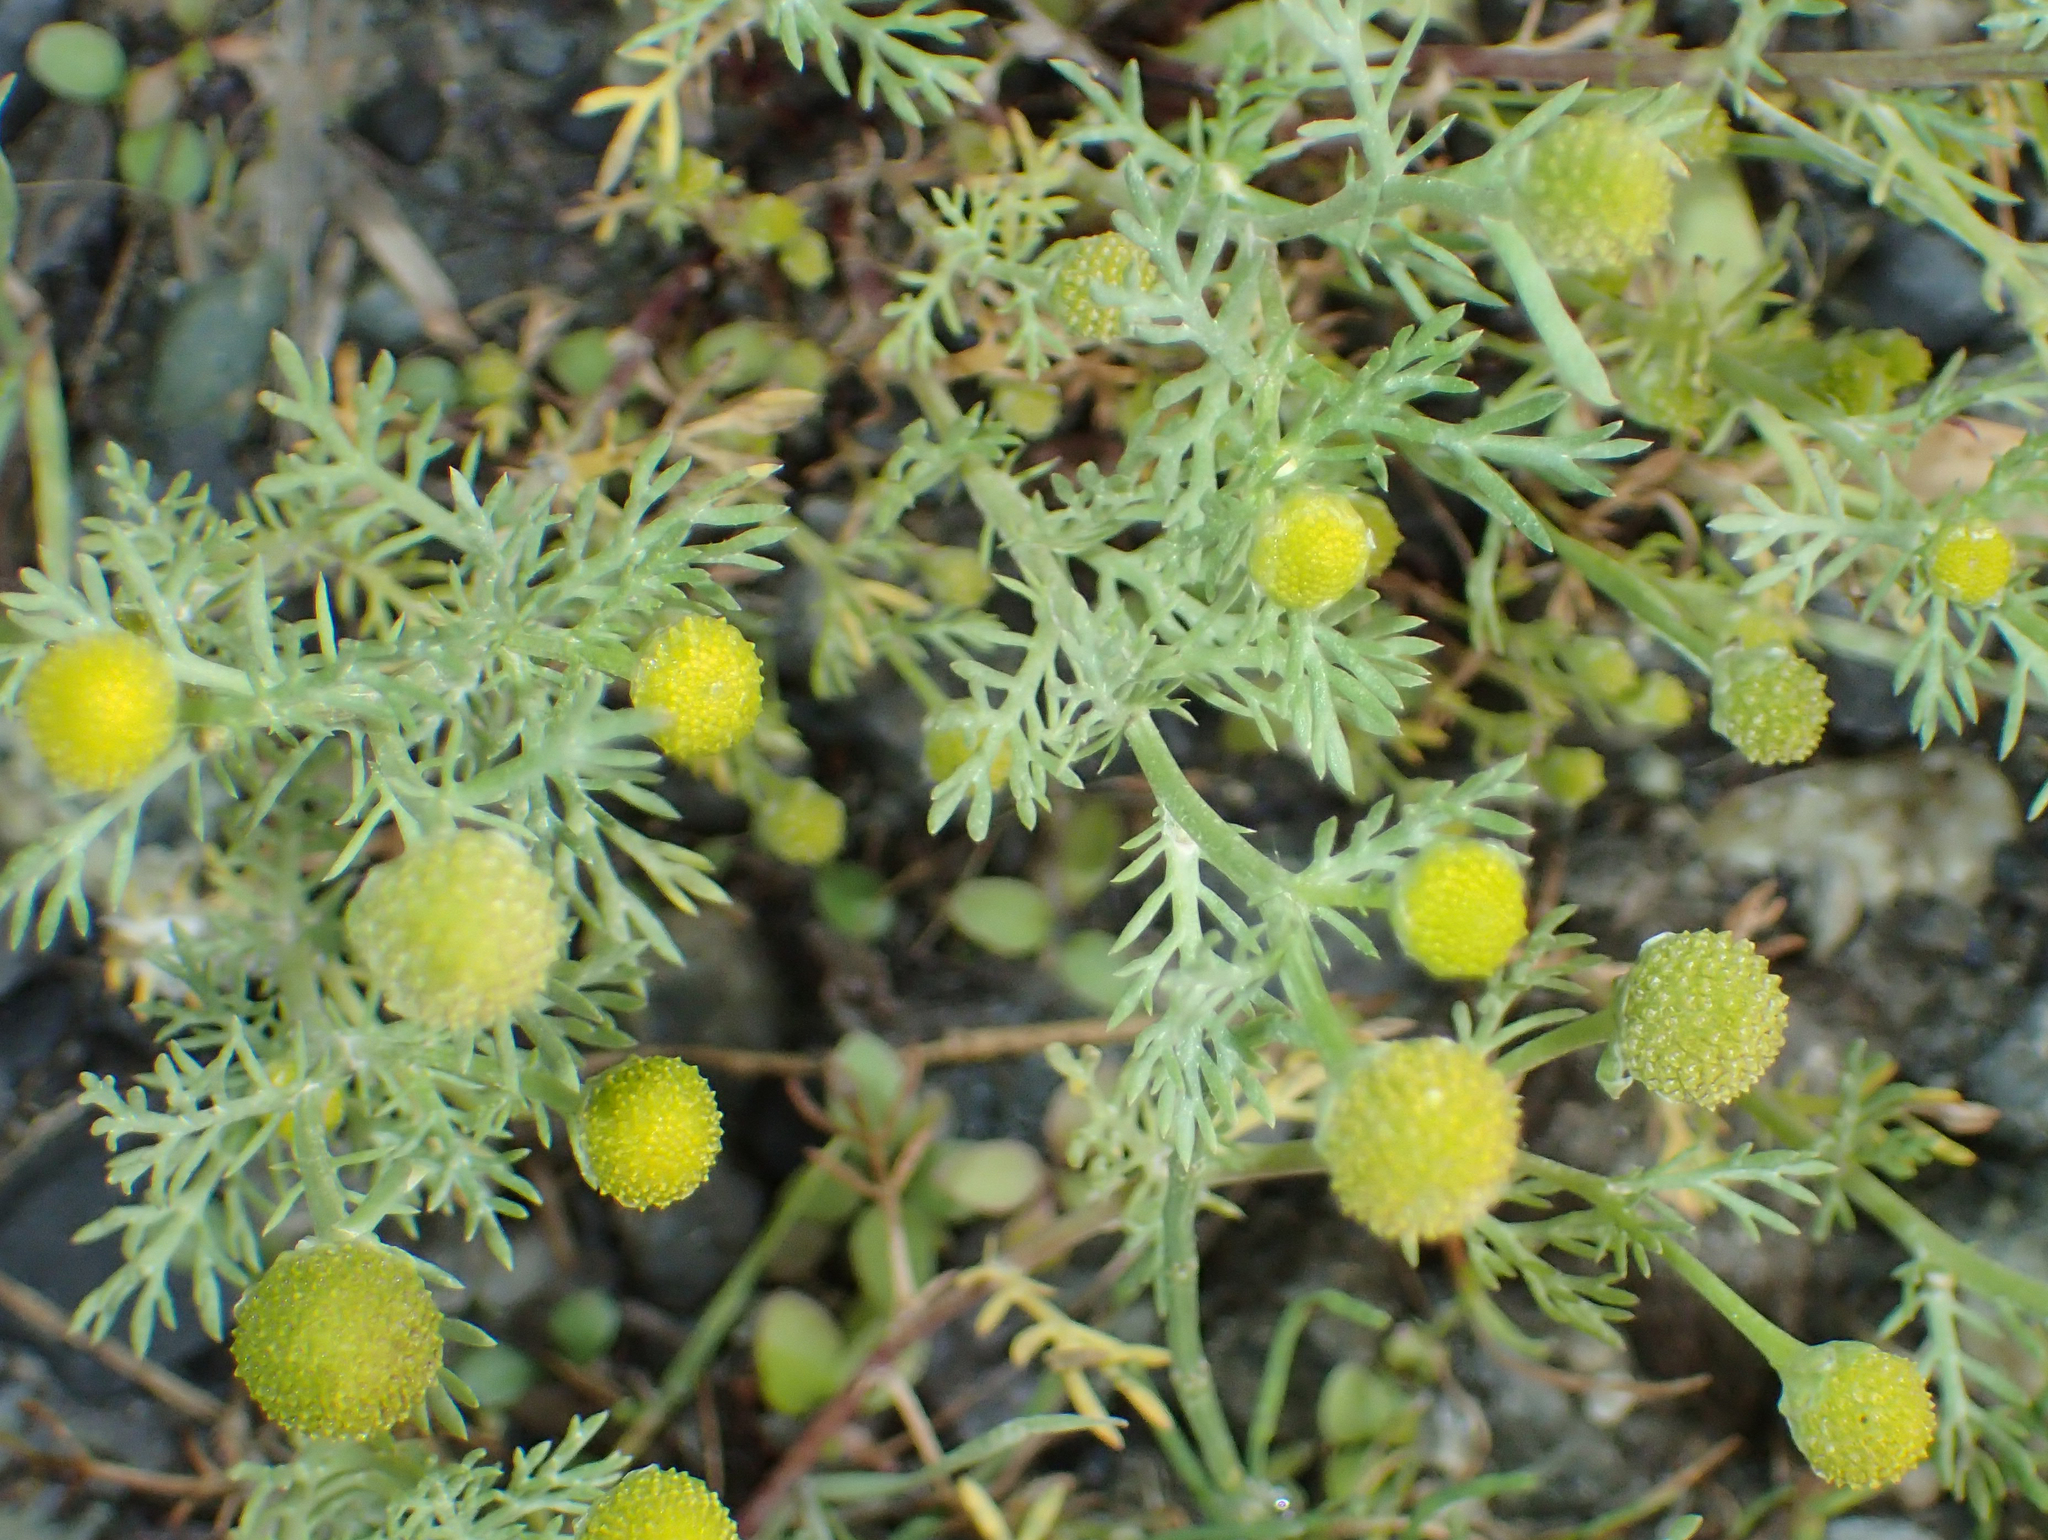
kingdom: Plantae
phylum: Tracheophyta
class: Magnoliopsida
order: Asterales
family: Asteraceae
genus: Matricaria
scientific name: Matricaria discoidea
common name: Disc mayweed
